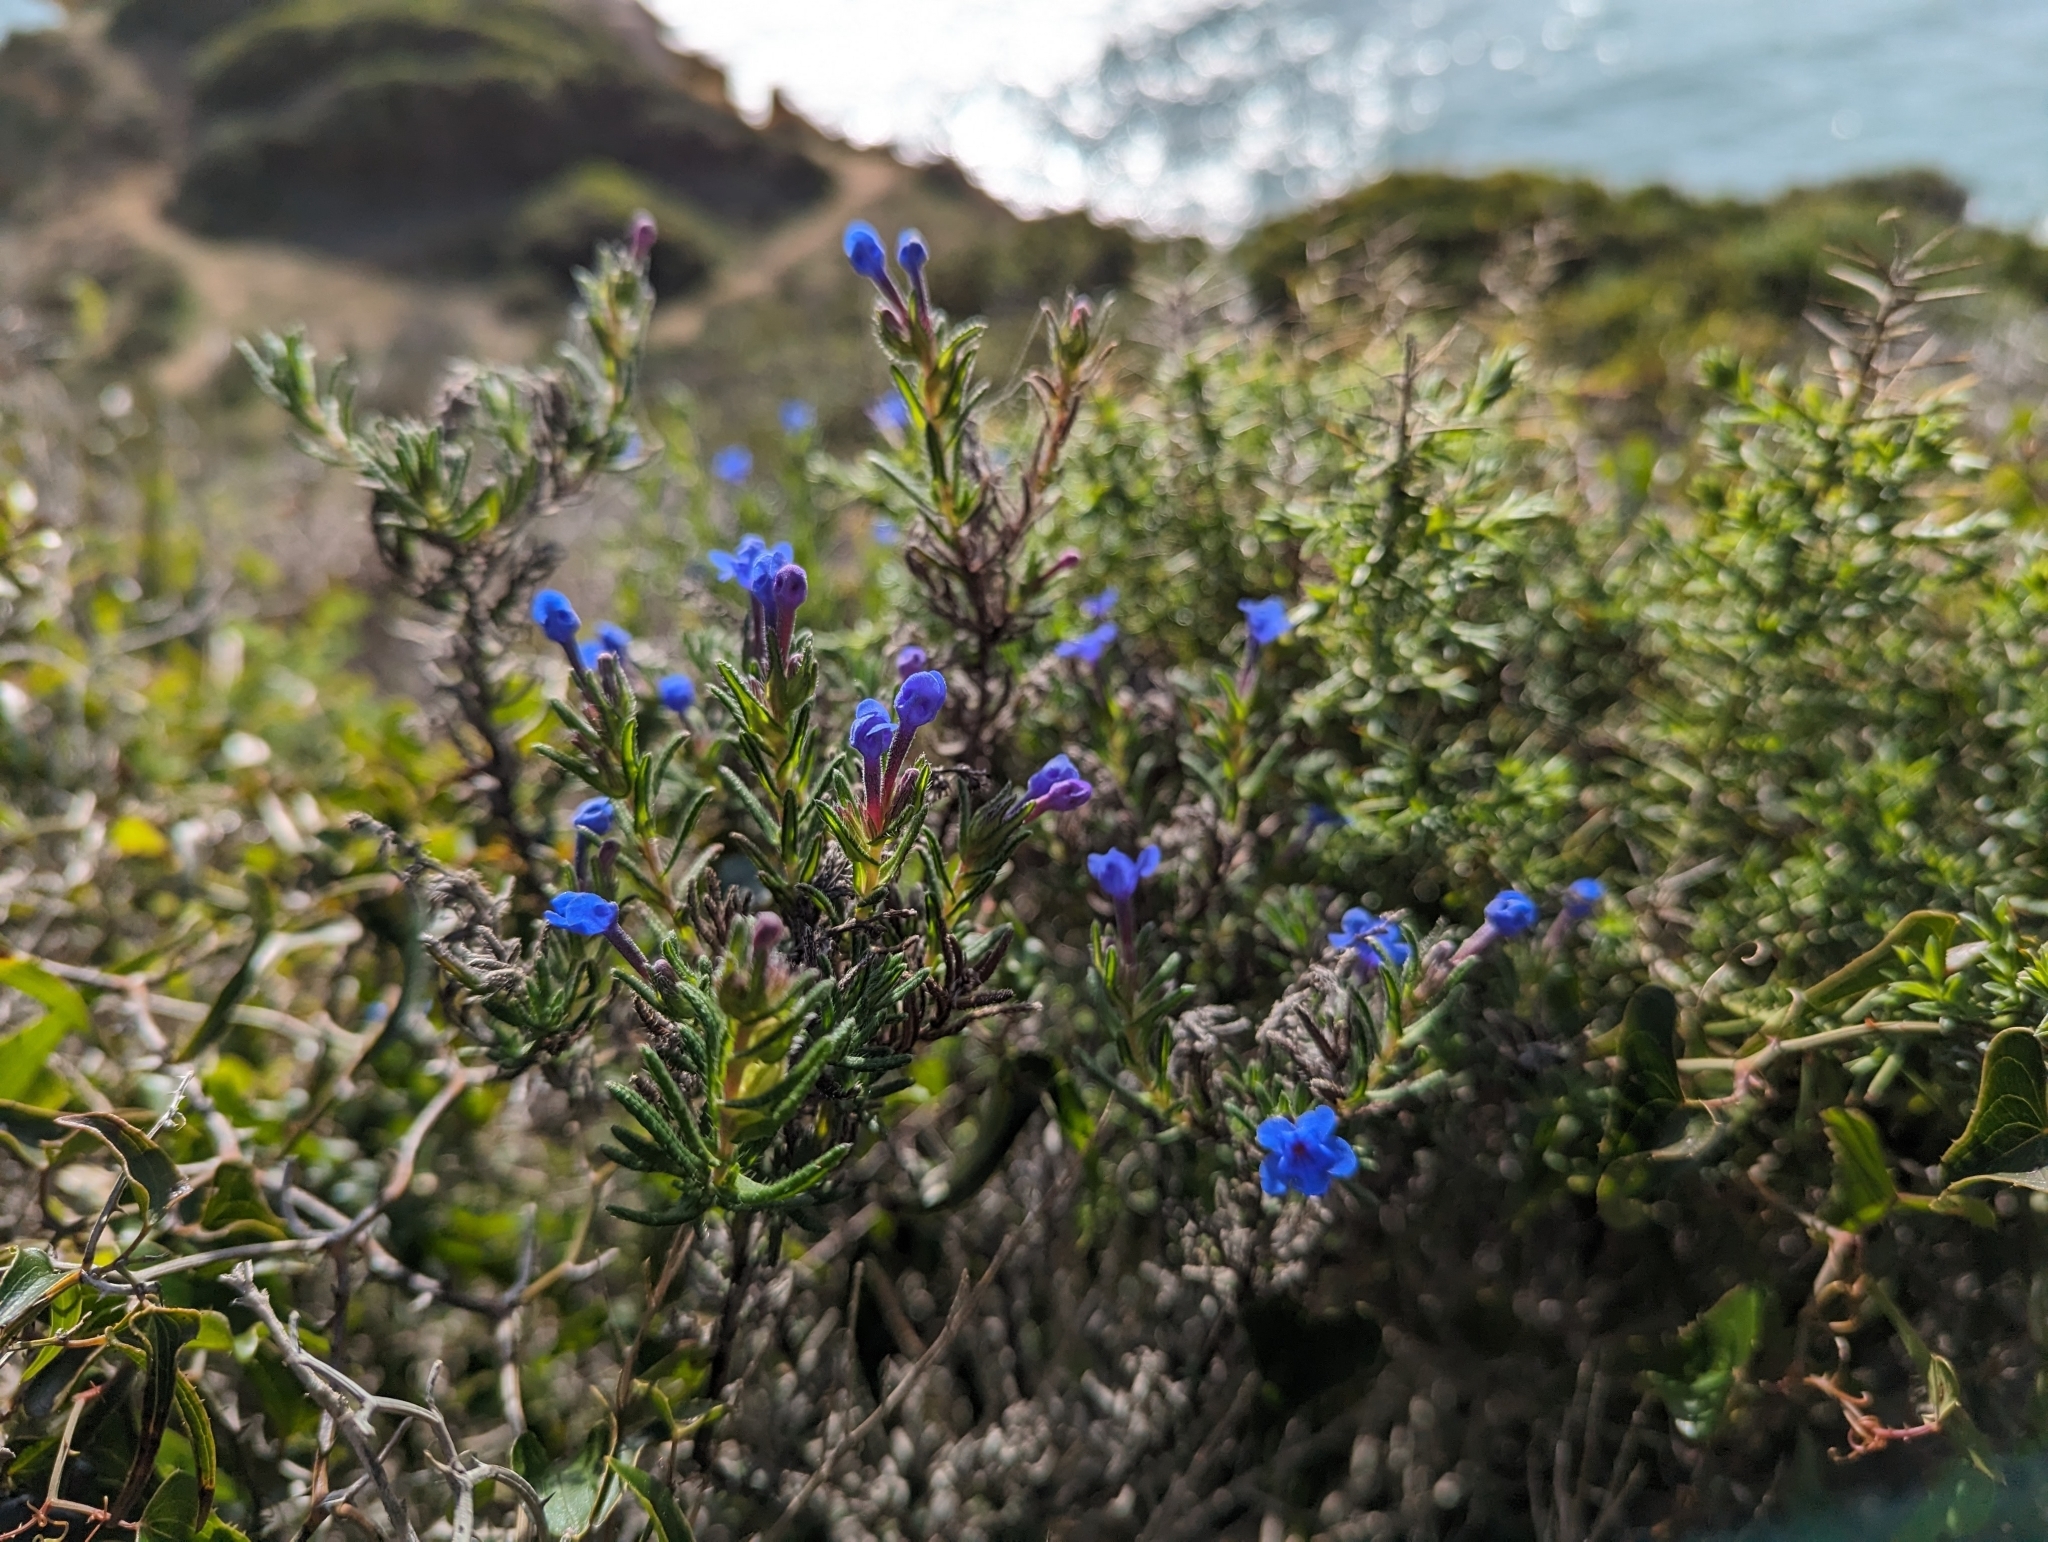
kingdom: Plantae
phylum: Tracheophyta
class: Magnoliopsida
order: Boraginales
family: Boraginaceae
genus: Glandora
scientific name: Glandora prostrata
